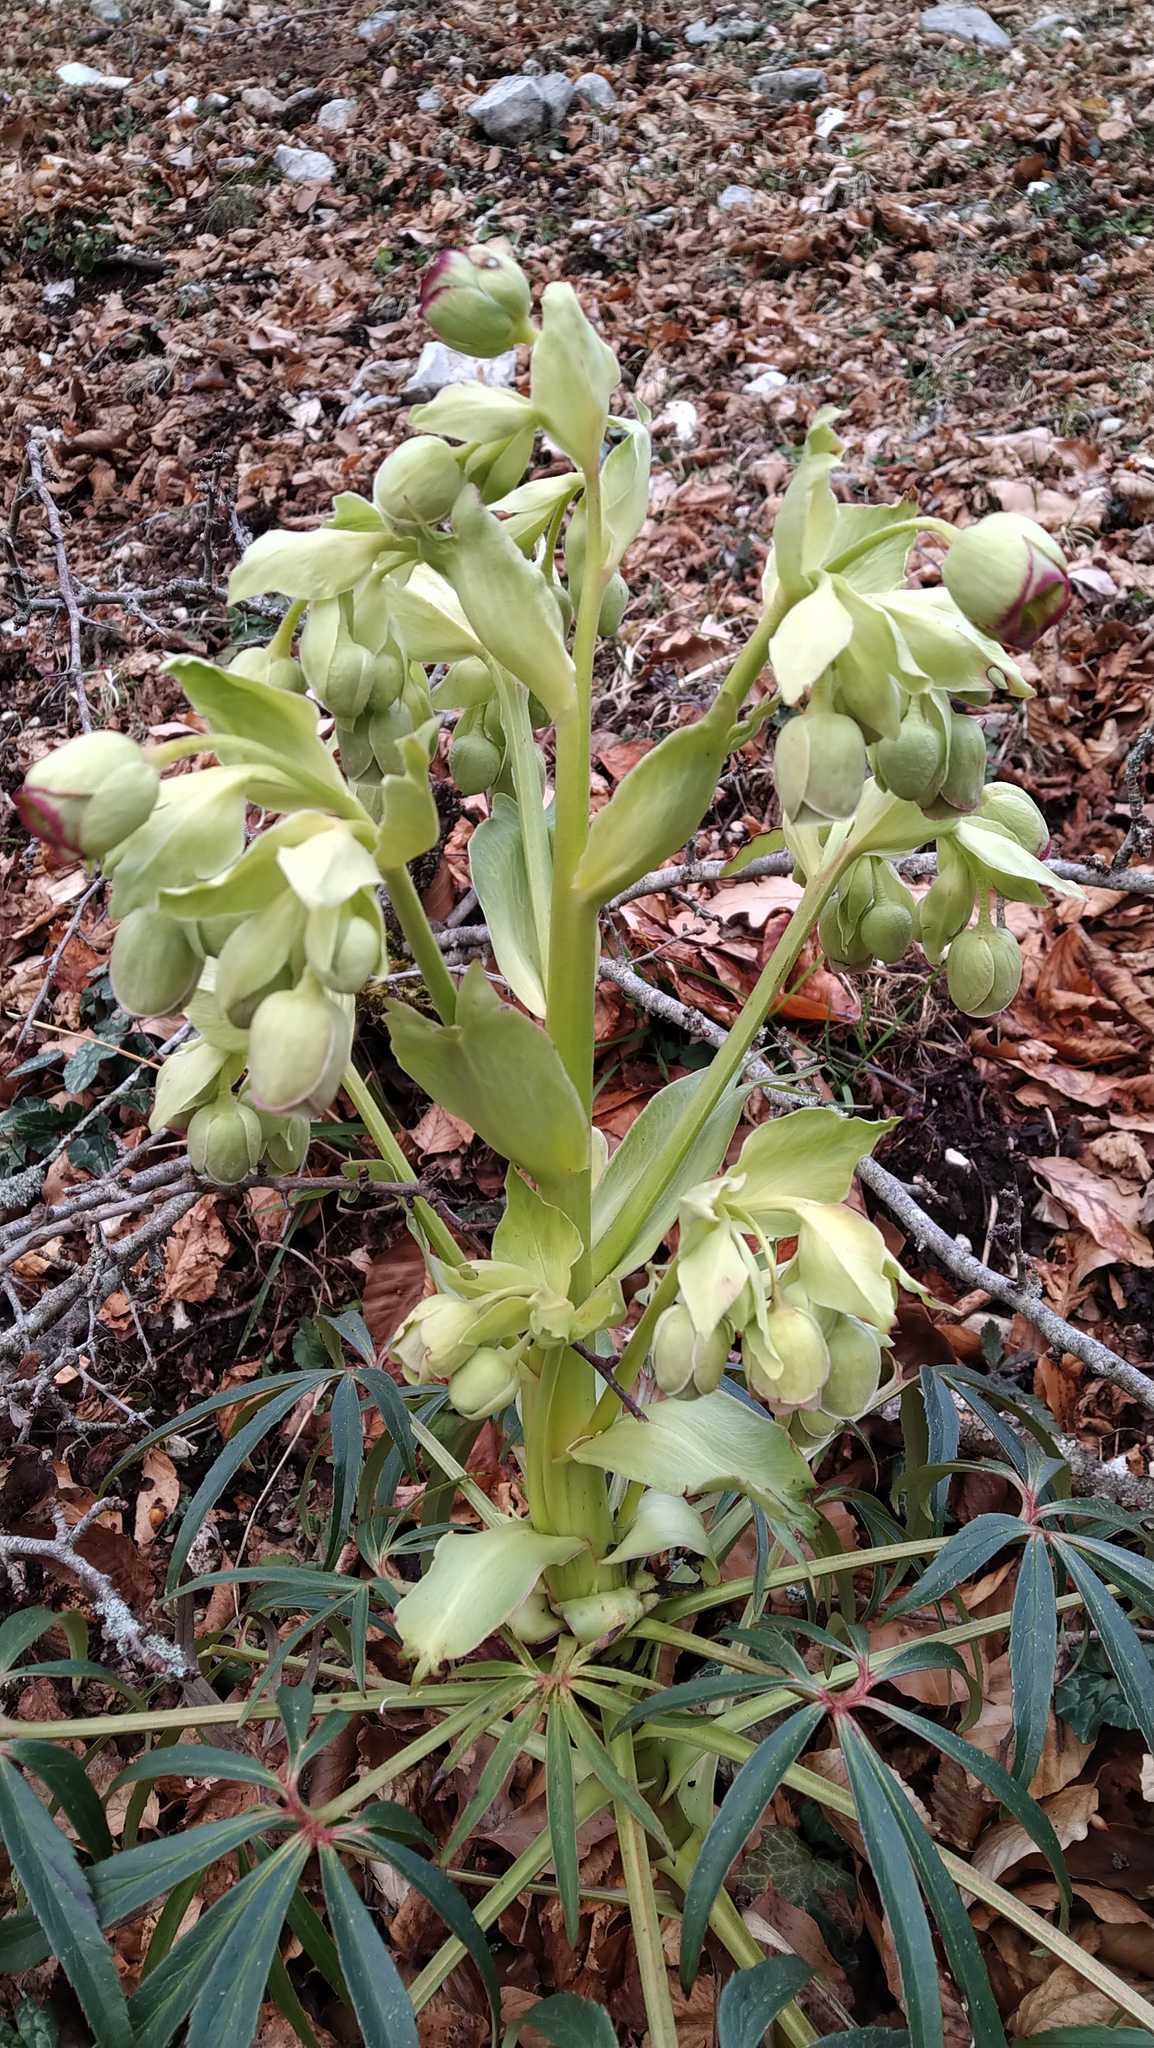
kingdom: Plantae
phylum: Tracheophyta
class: Magnoliopsida
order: Ranunculales
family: Ranunculaceae
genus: Helleborus
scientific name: Helleborus foetidus
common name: Stinking hellebore
